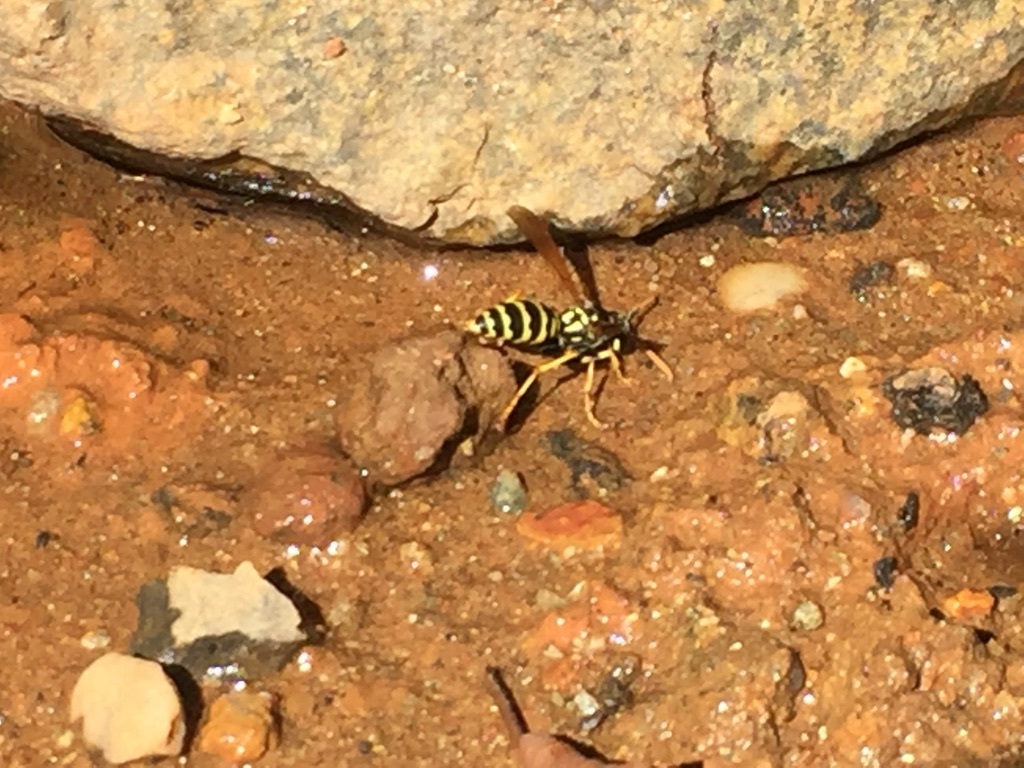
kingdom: Animalia
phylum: Arthropoda
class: Insecta
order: Hymenoptera
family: Eumenidae
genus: Polistes
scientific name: Polistes dominula
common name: Paper wasp
